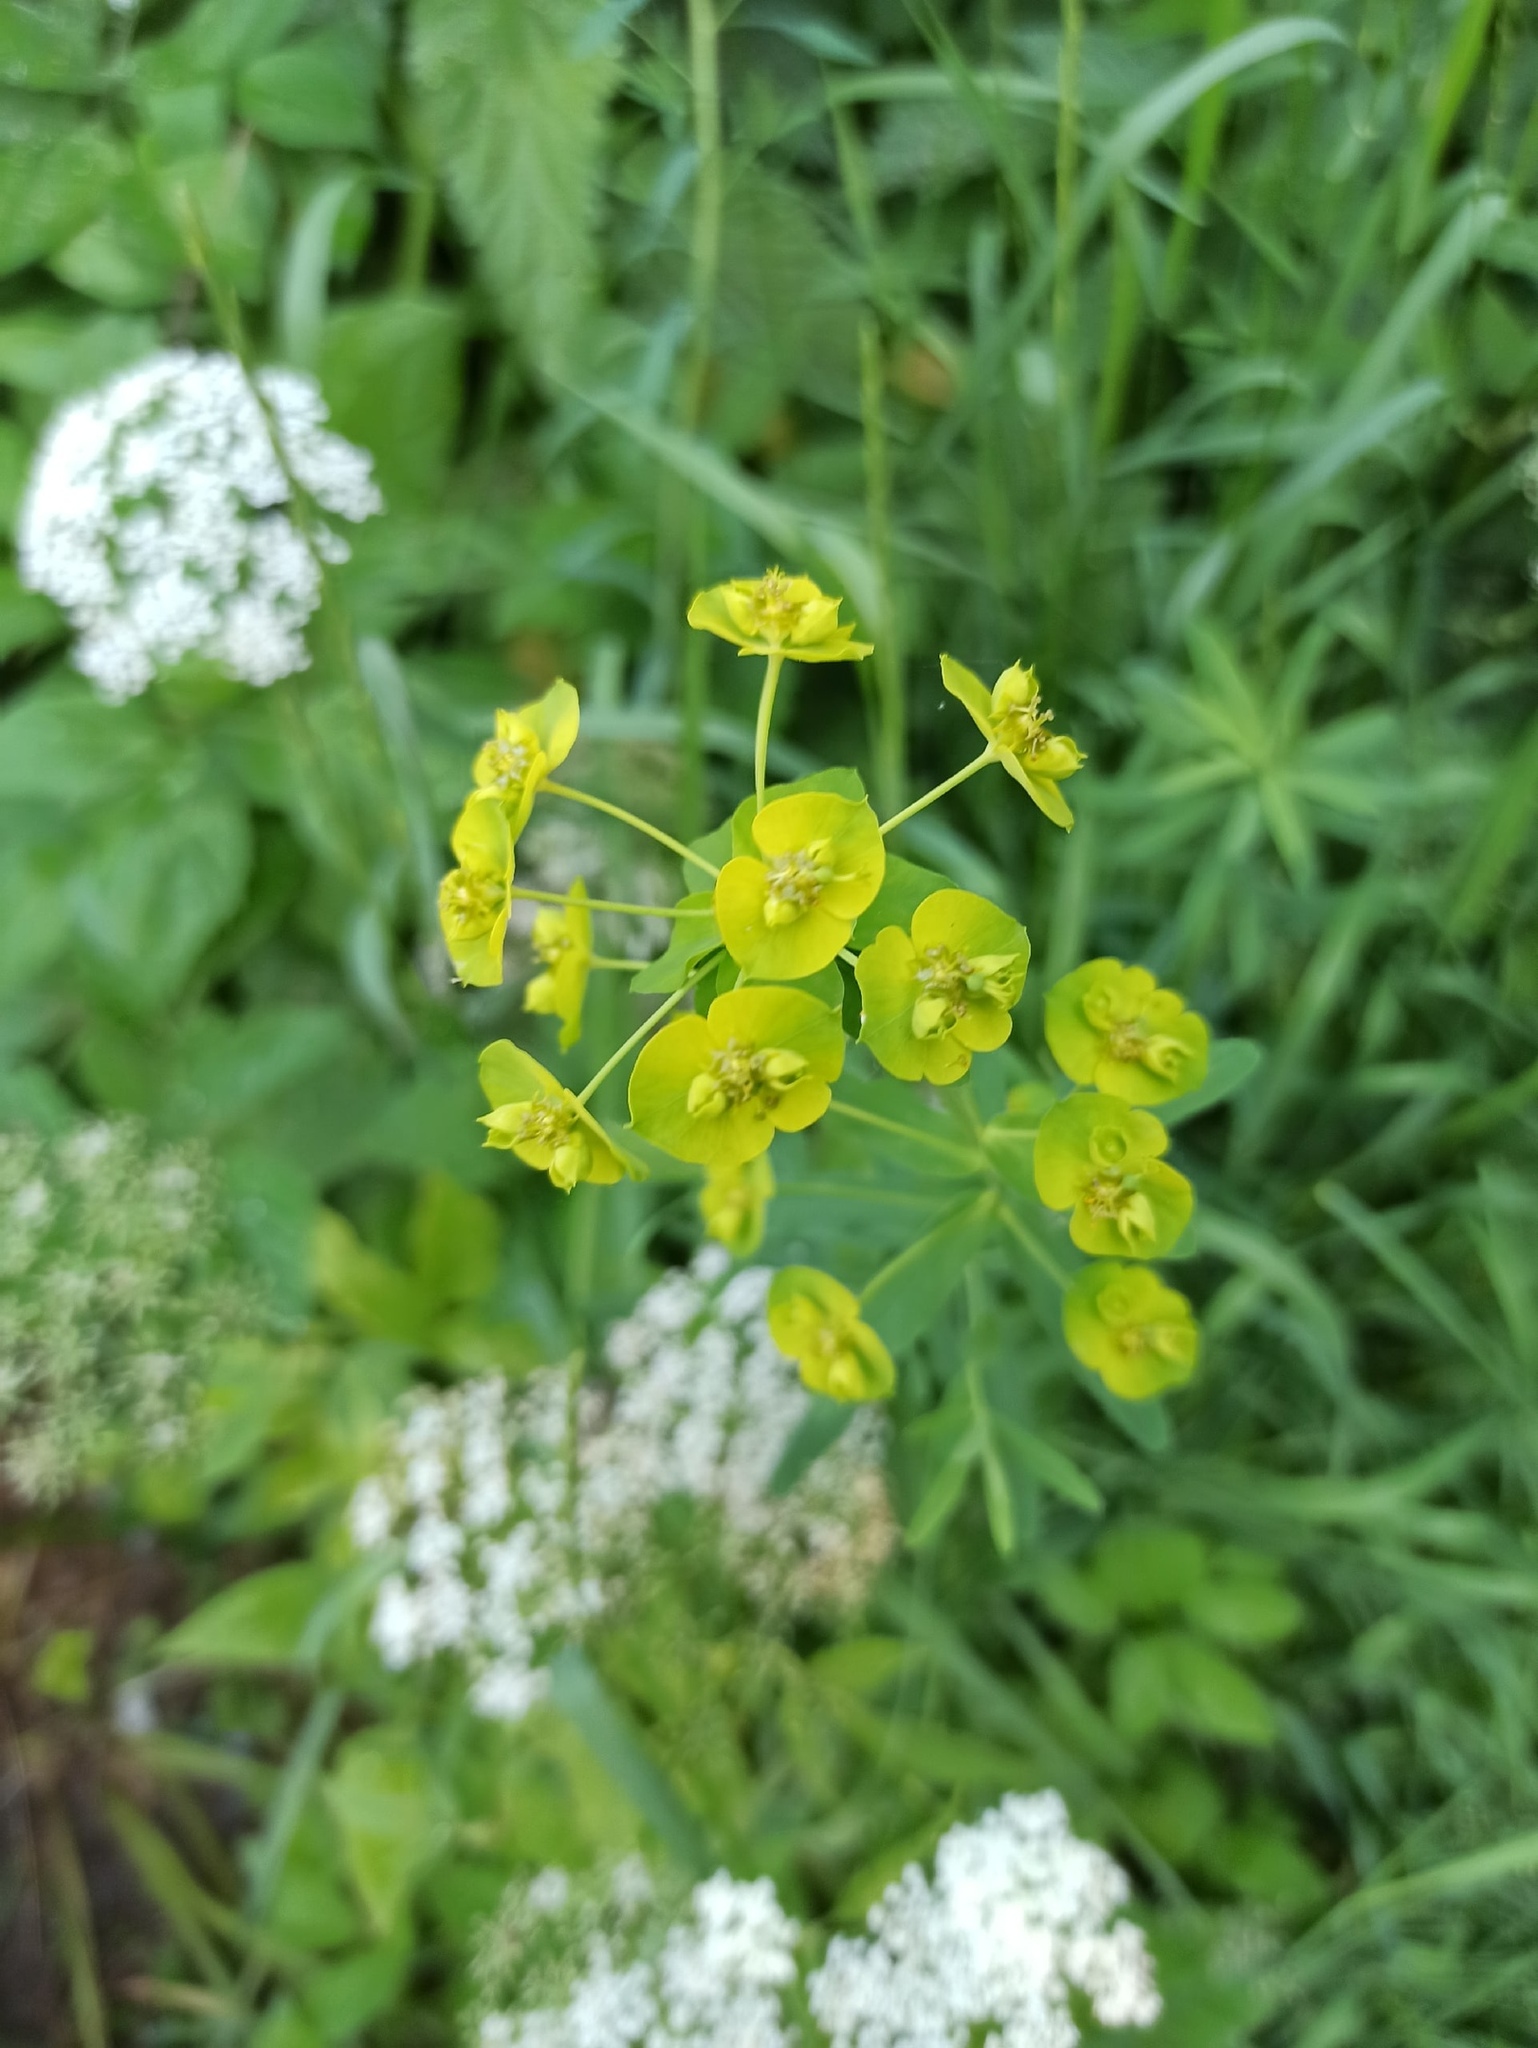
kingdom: Plantae
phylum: Tracheophyta
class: Magnoliopsida
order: Malpighiales
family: Euphorbiaceae
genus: Euphorbia
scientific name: Euphorbia virgata
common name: Leafy spurge
